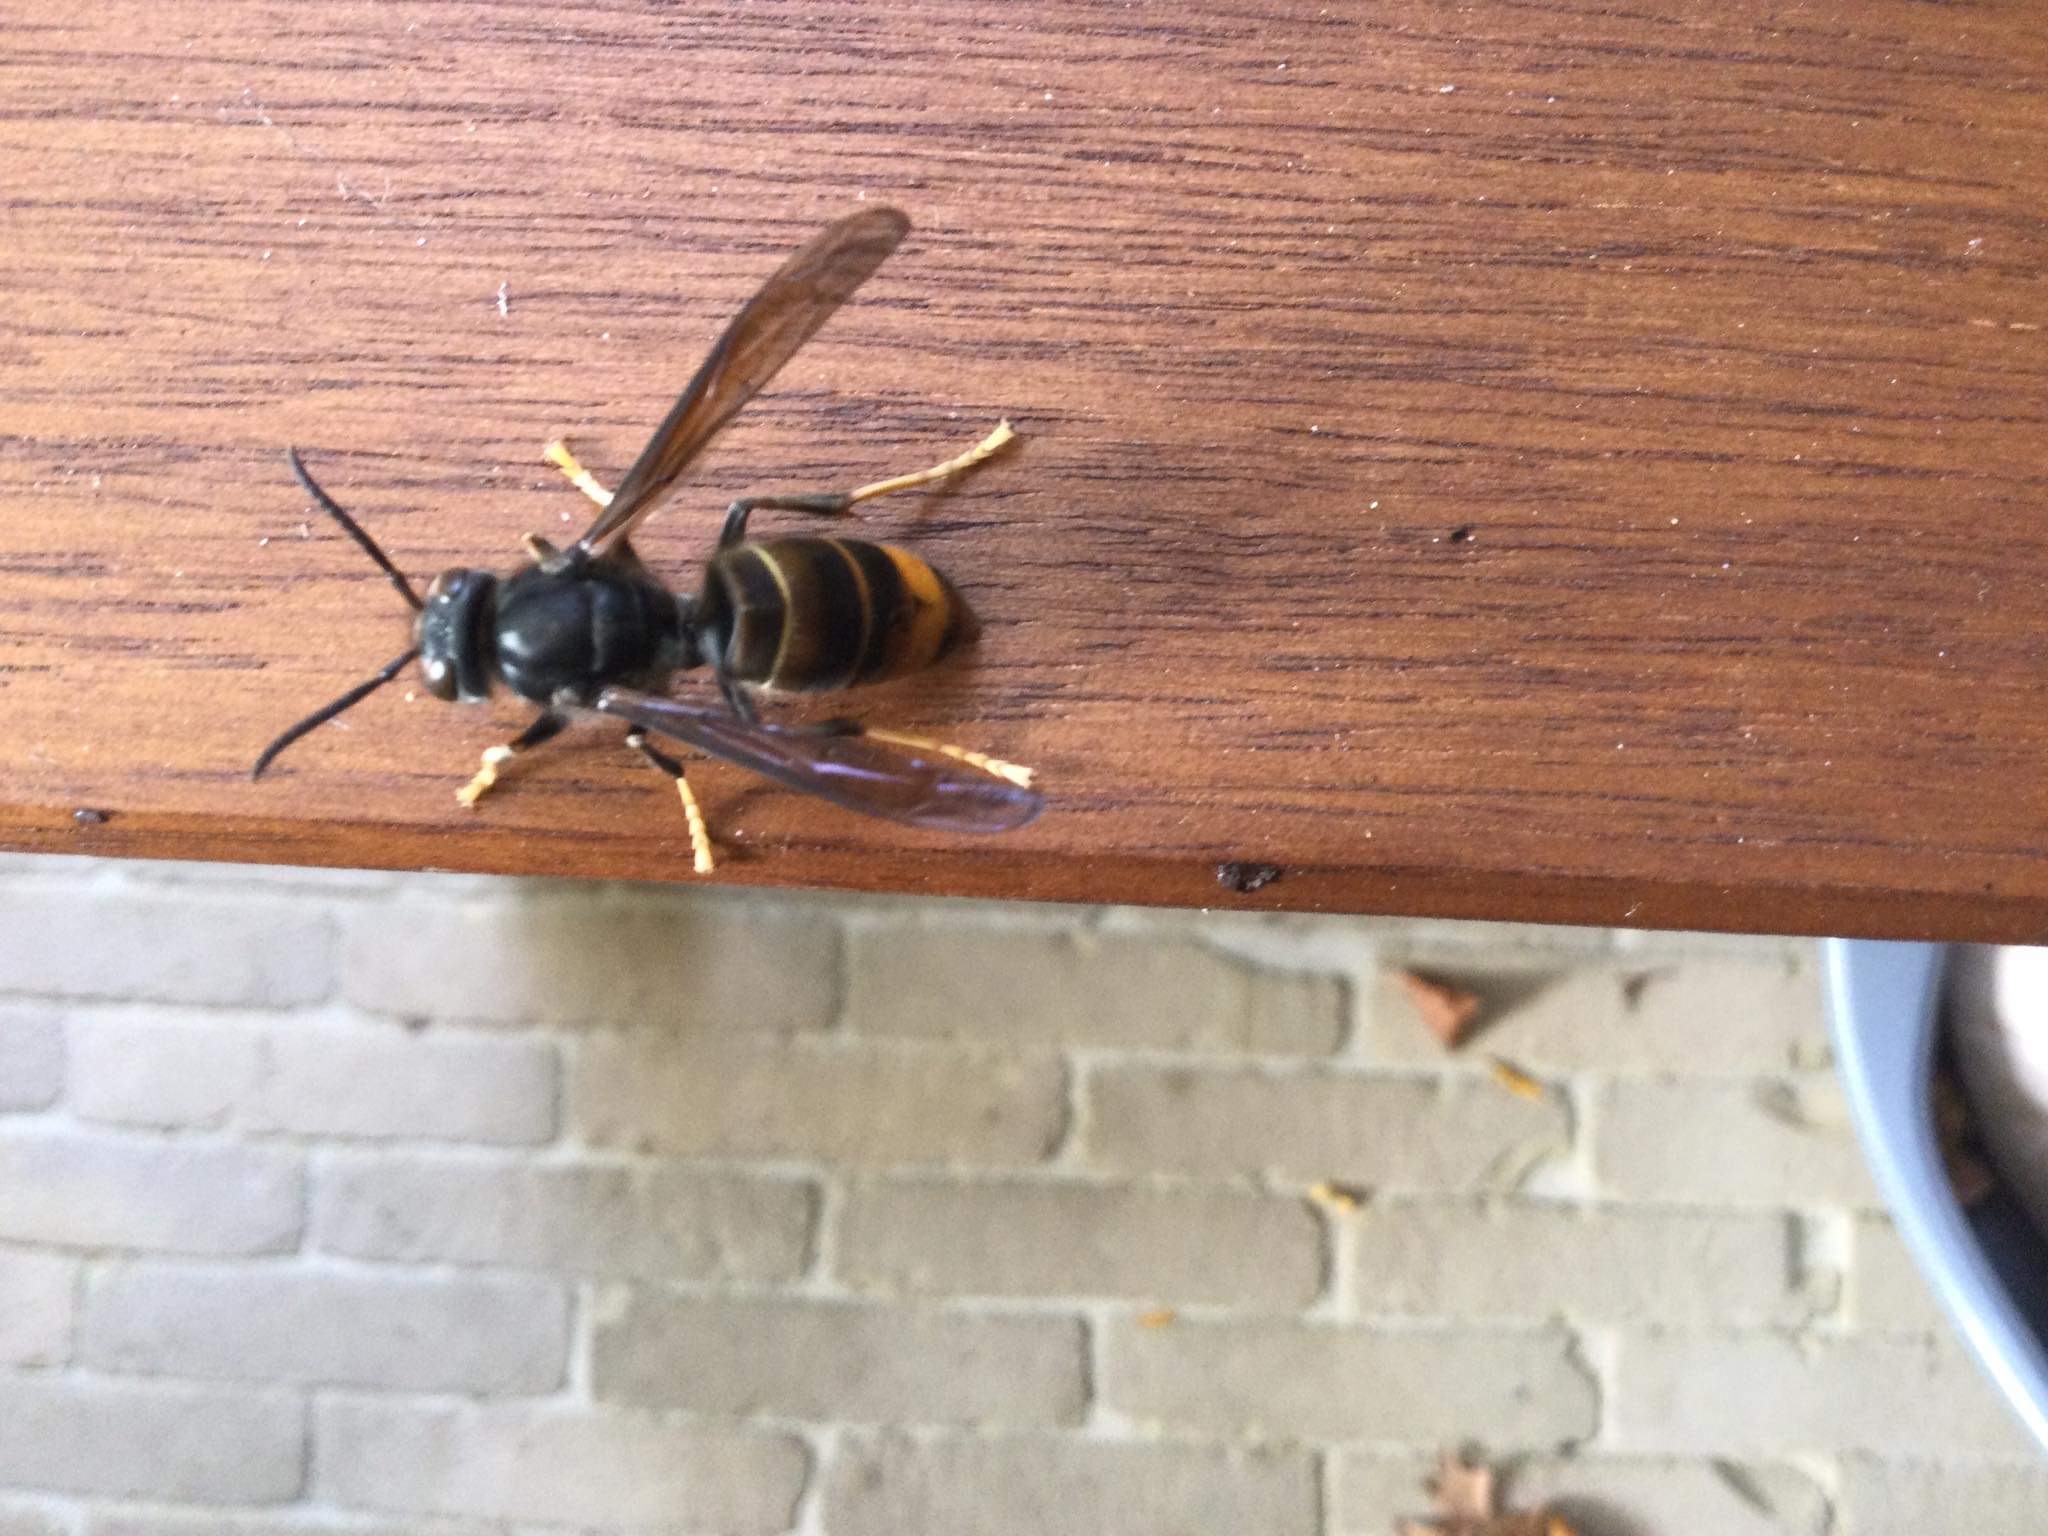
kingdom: Animalia
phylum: Arthropoda
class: Insecta
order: Hymenoptera
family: Vespidae
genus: Vespa
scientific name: Vespa velutina
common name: Asian hornet
